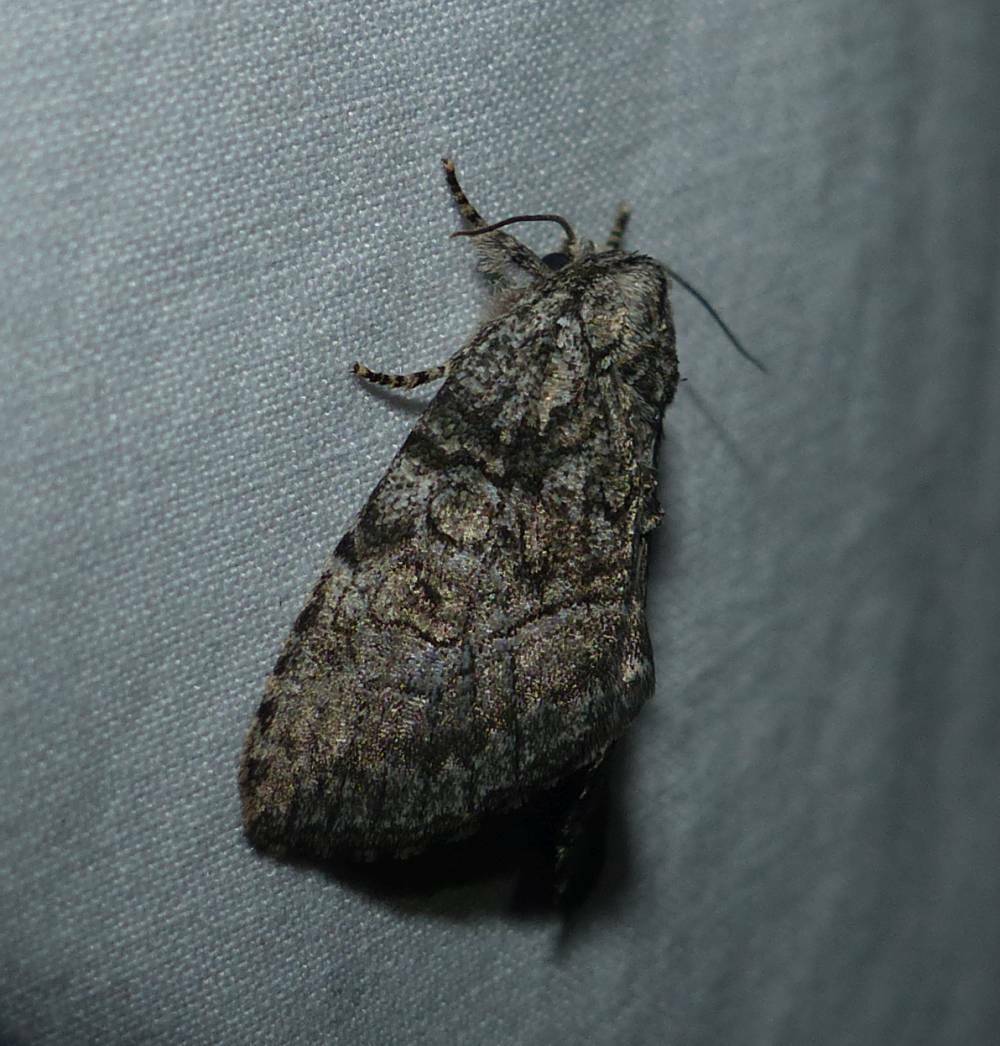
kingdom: Animalia
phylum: Arthropoda
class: Insecta
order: Lepidoptera
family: Noctuidae
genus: Raphia
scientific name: Raphia frater
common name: Brother
